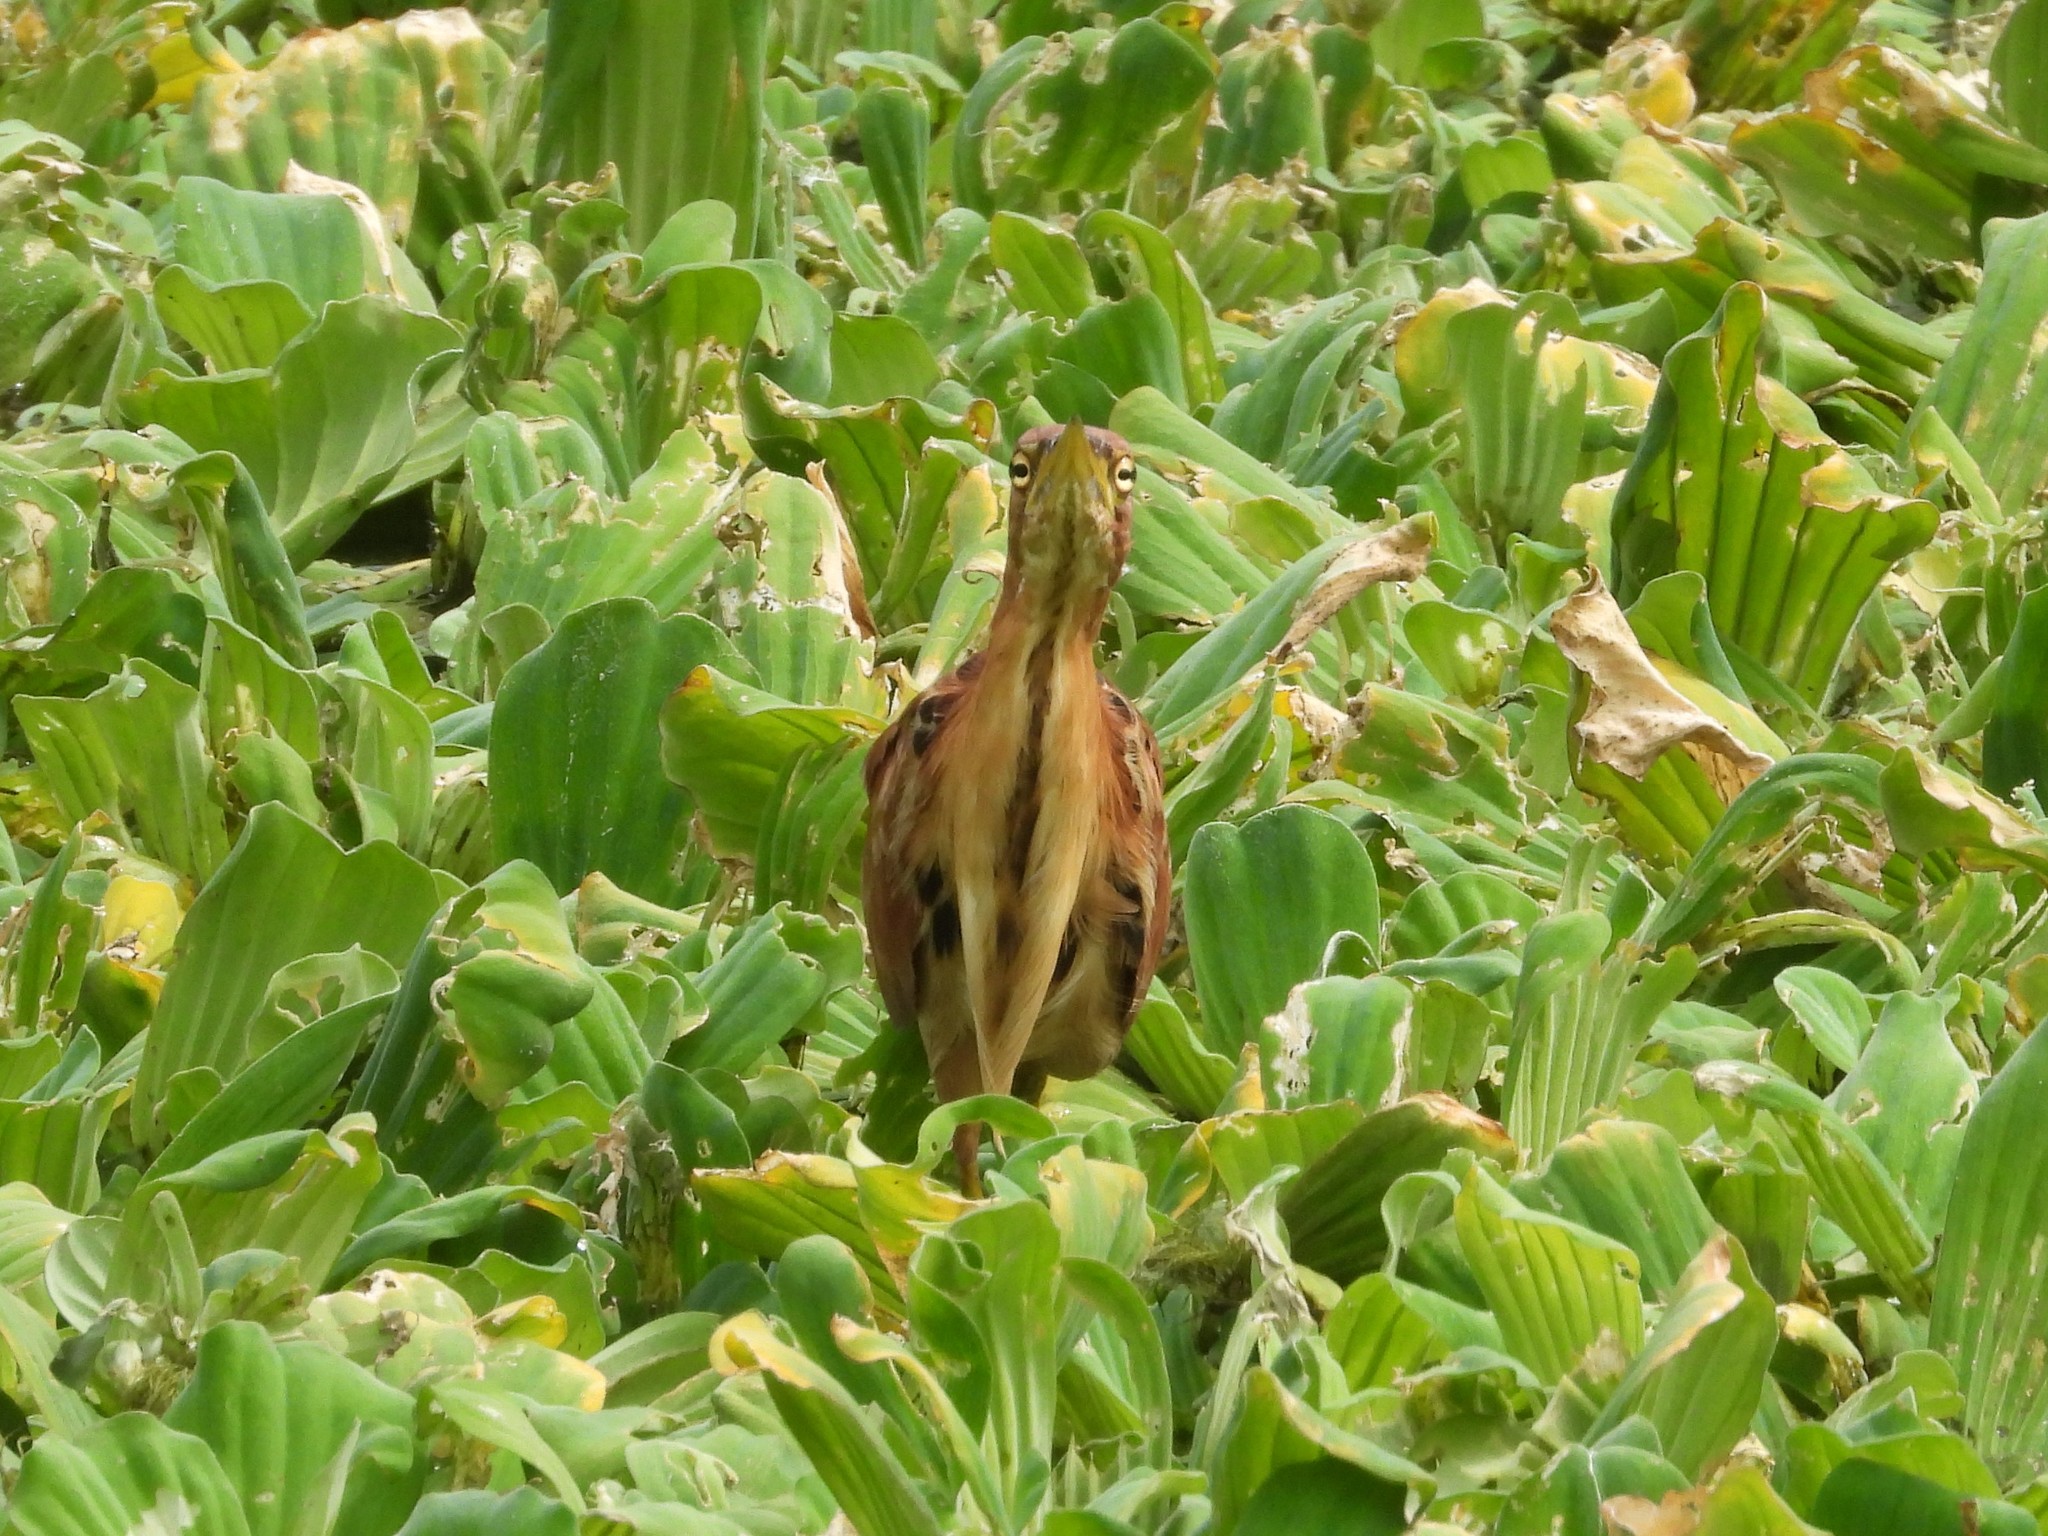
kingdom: Animalia
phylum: Chordata
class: Aves
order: Pelecaniformes
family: Ardeidae
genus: Ixobrychus
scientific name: Ixobrychus cinnamomeus
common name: Cinnamon bittern
